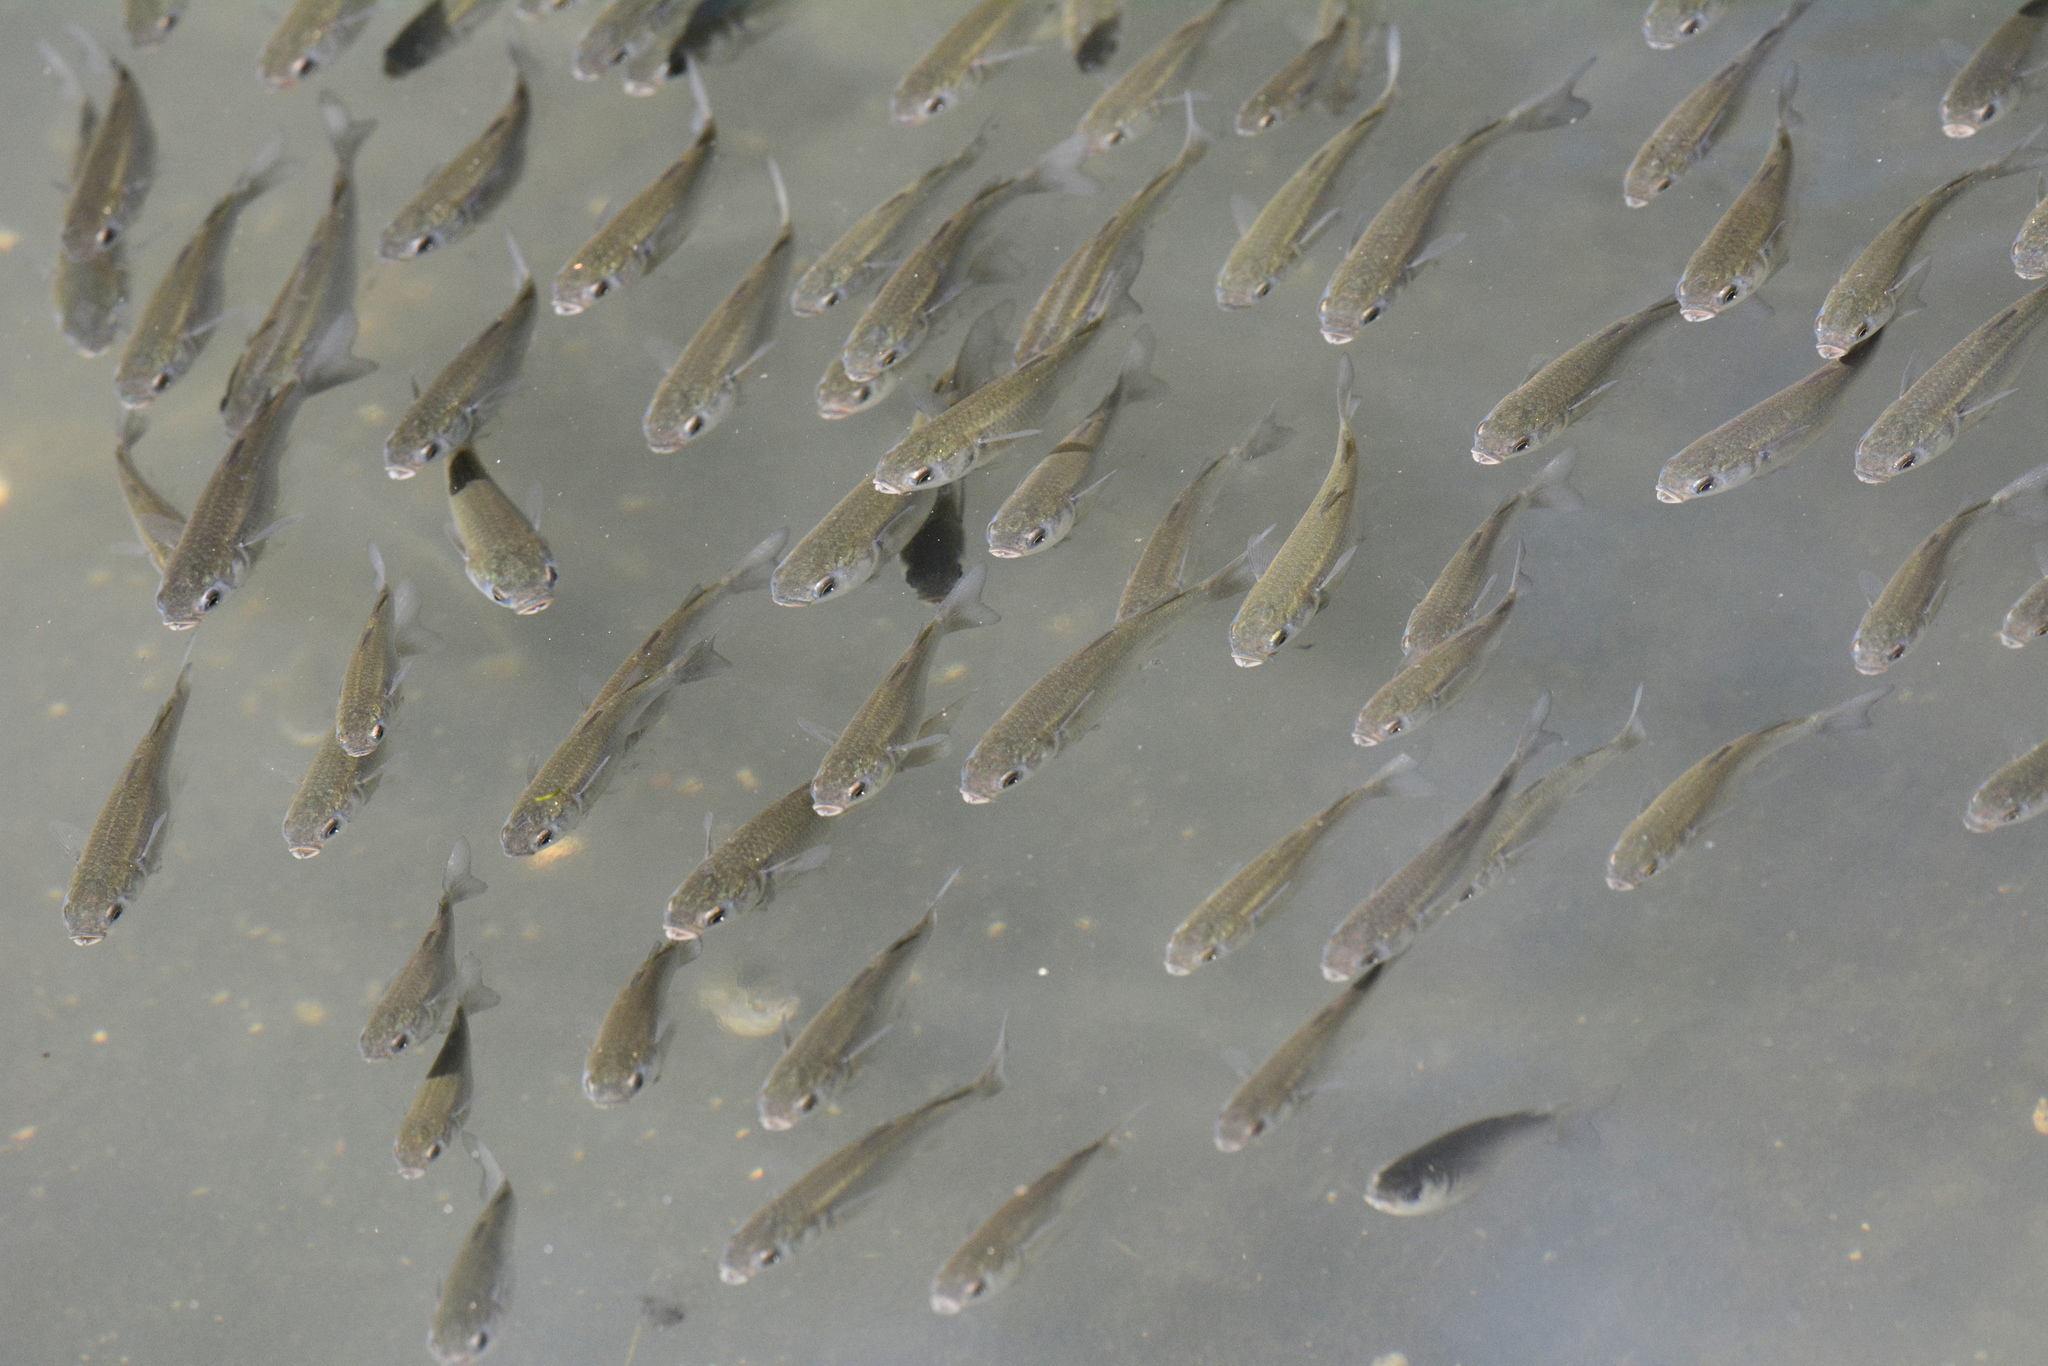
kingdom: Animalia
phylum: Chordata
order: Mugiliformes
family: Mugilidae
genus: Mugil
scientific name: Mugil cephalus
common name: Grey mullet
